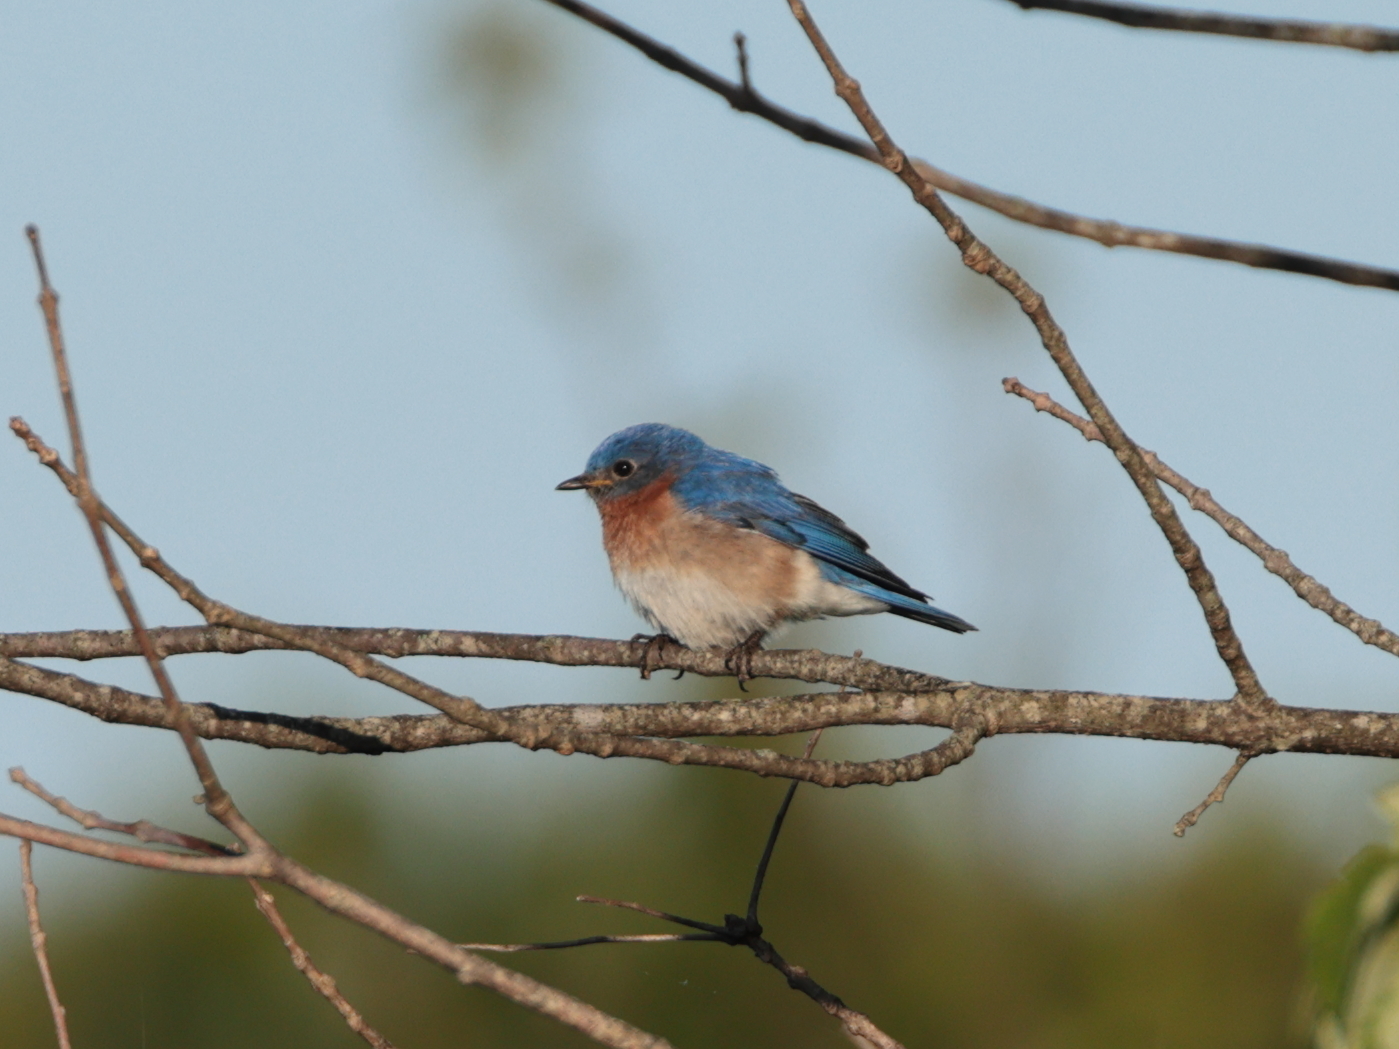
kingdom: Animalia
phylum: Chordata
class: Aves
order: Passeriformes
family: Turdidae
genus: Sialia
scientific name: Sialia sialis
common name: Eastern bluebird
